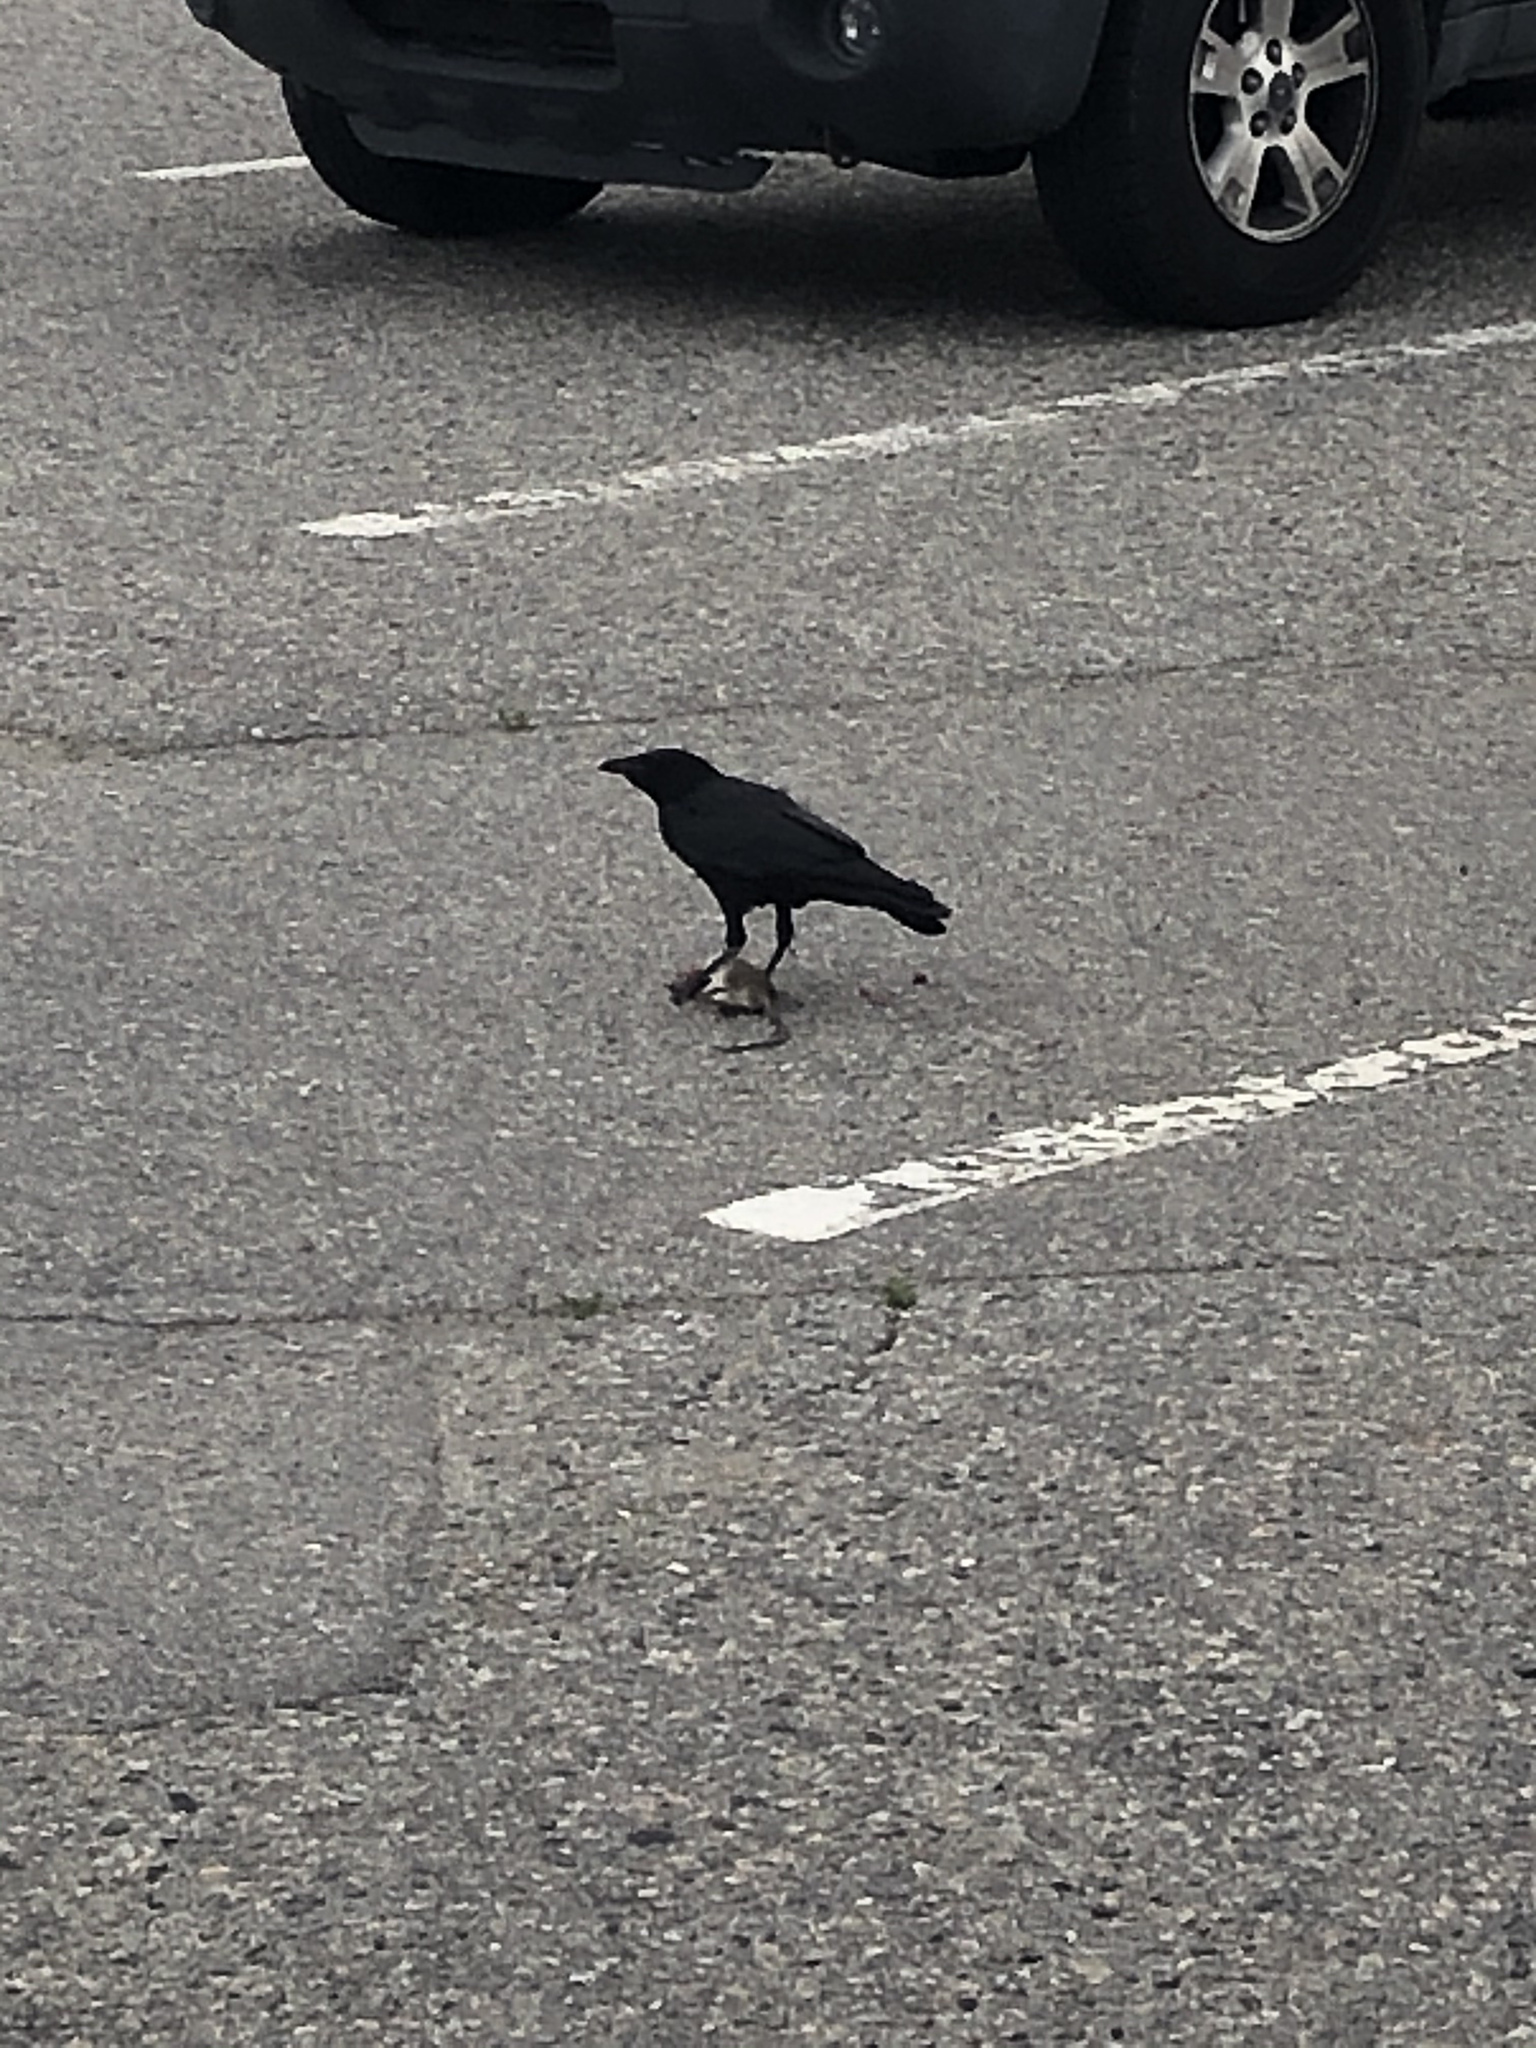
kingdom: Animalia
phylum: Chordata
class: Mammalia
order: Rodentia
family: Muridae
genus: Rattus
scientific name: Rattus rattus
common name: Black rat
